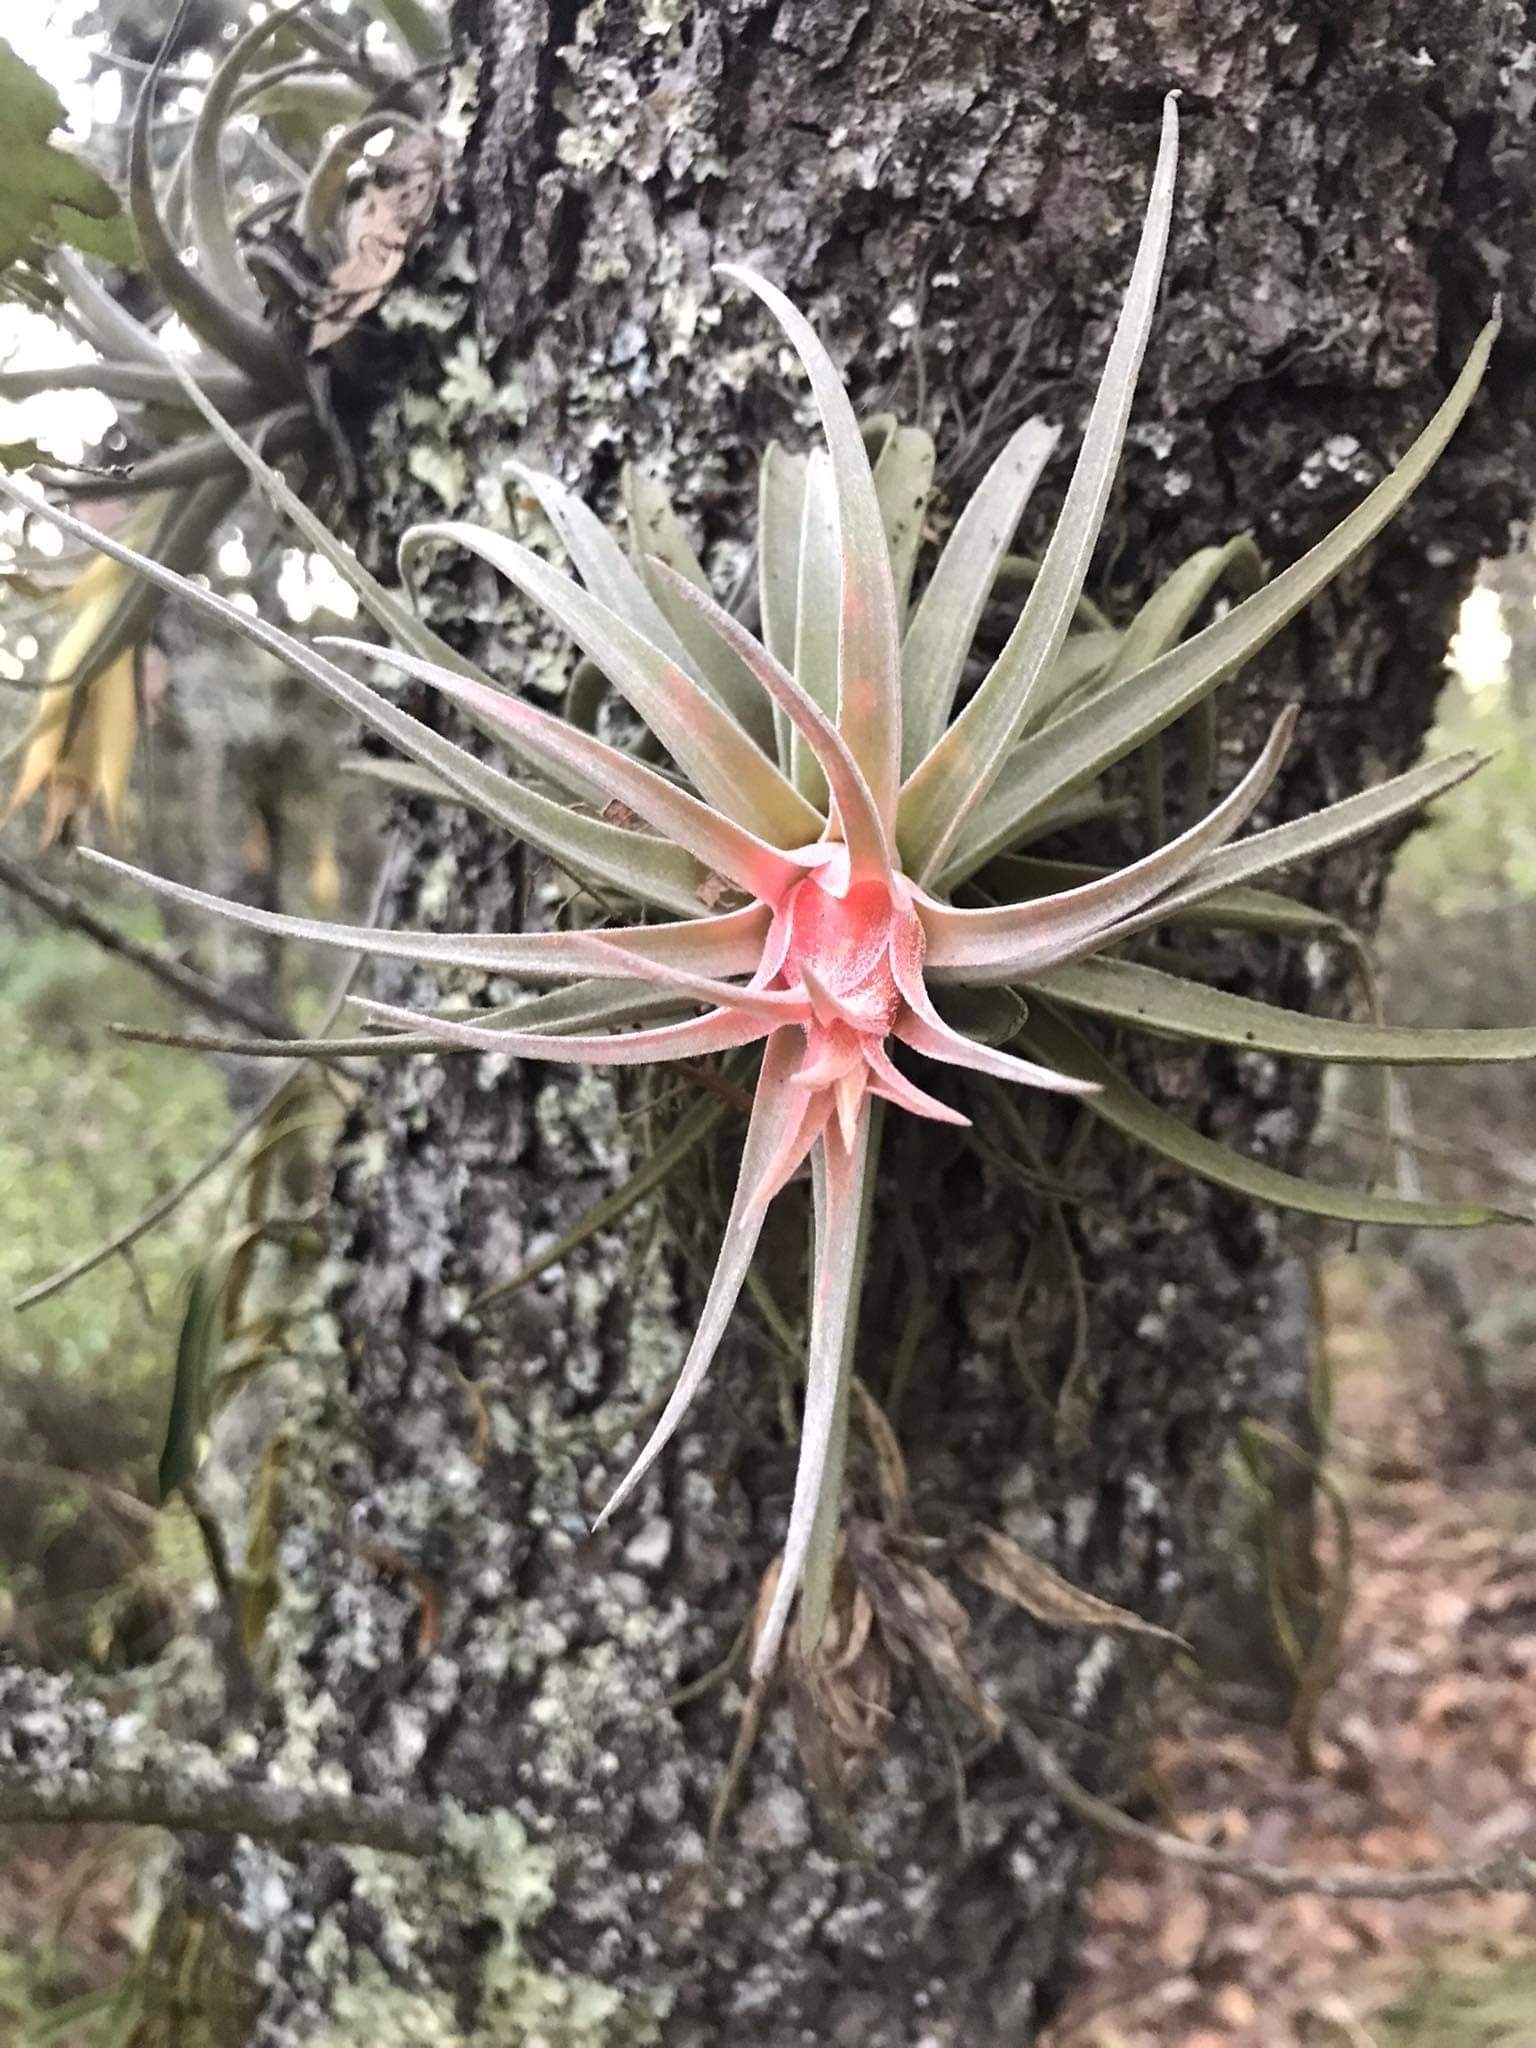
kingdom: Plantae
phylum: Tracheophyta
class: Liliopsida
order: Poales
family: Bromeliaceae
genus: Tillandsia
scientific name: Tillandsia erubescens
